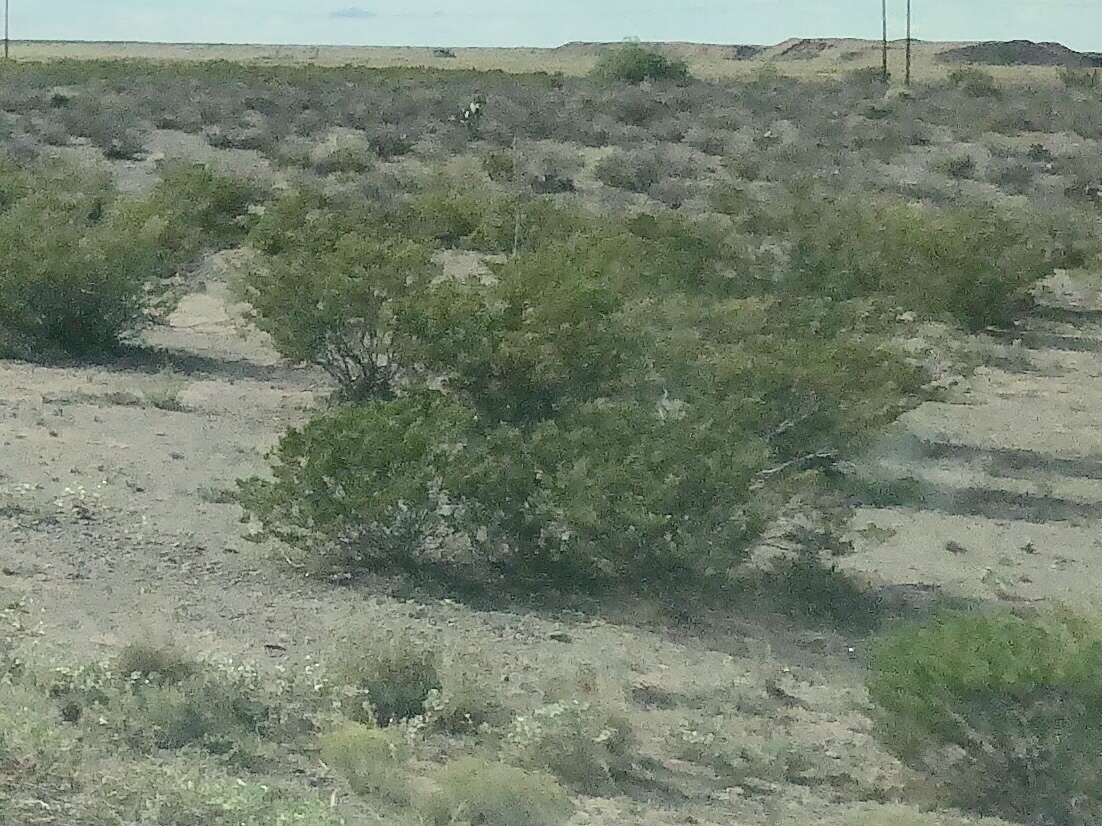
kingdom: Plantae
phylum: Tracheophyta
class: Magnoliopsida
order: Zygophyllales
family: Zygophyllaceae
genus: Larrea
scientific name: Larrea tridentata
